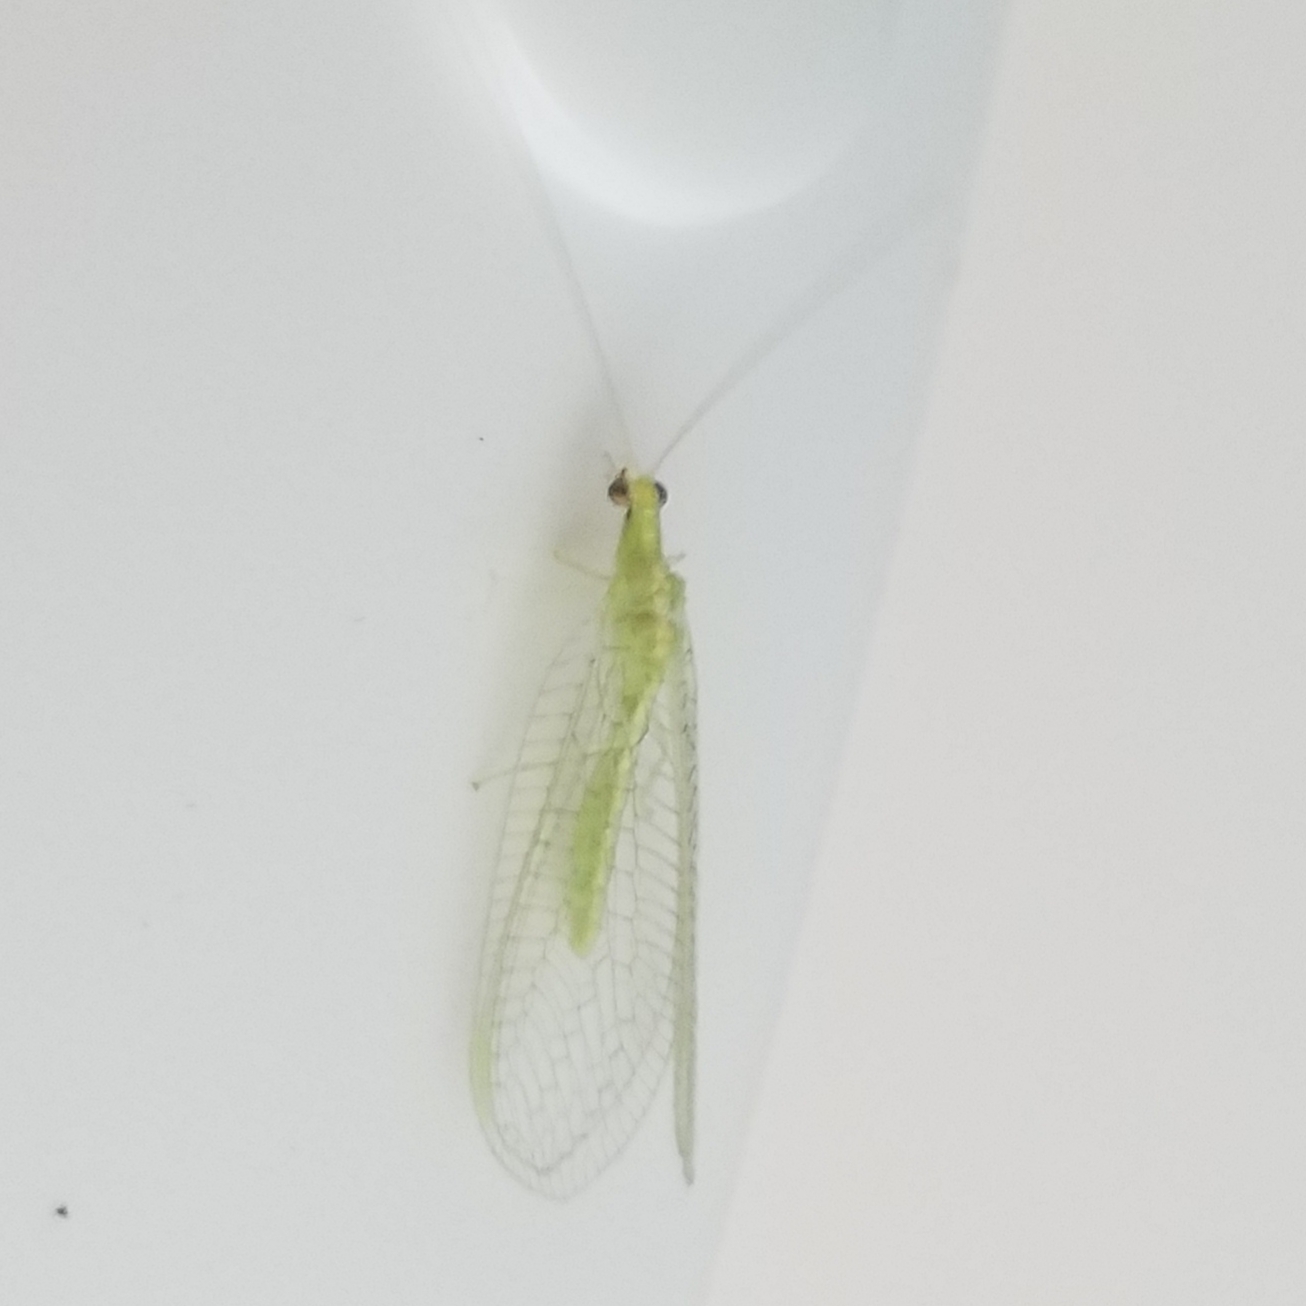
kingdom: Animalia
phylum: Arthropoda
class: Insecta
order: Neuroptera
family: Chrysopidae
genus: Chrysoperla
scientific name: Chrysoperla
